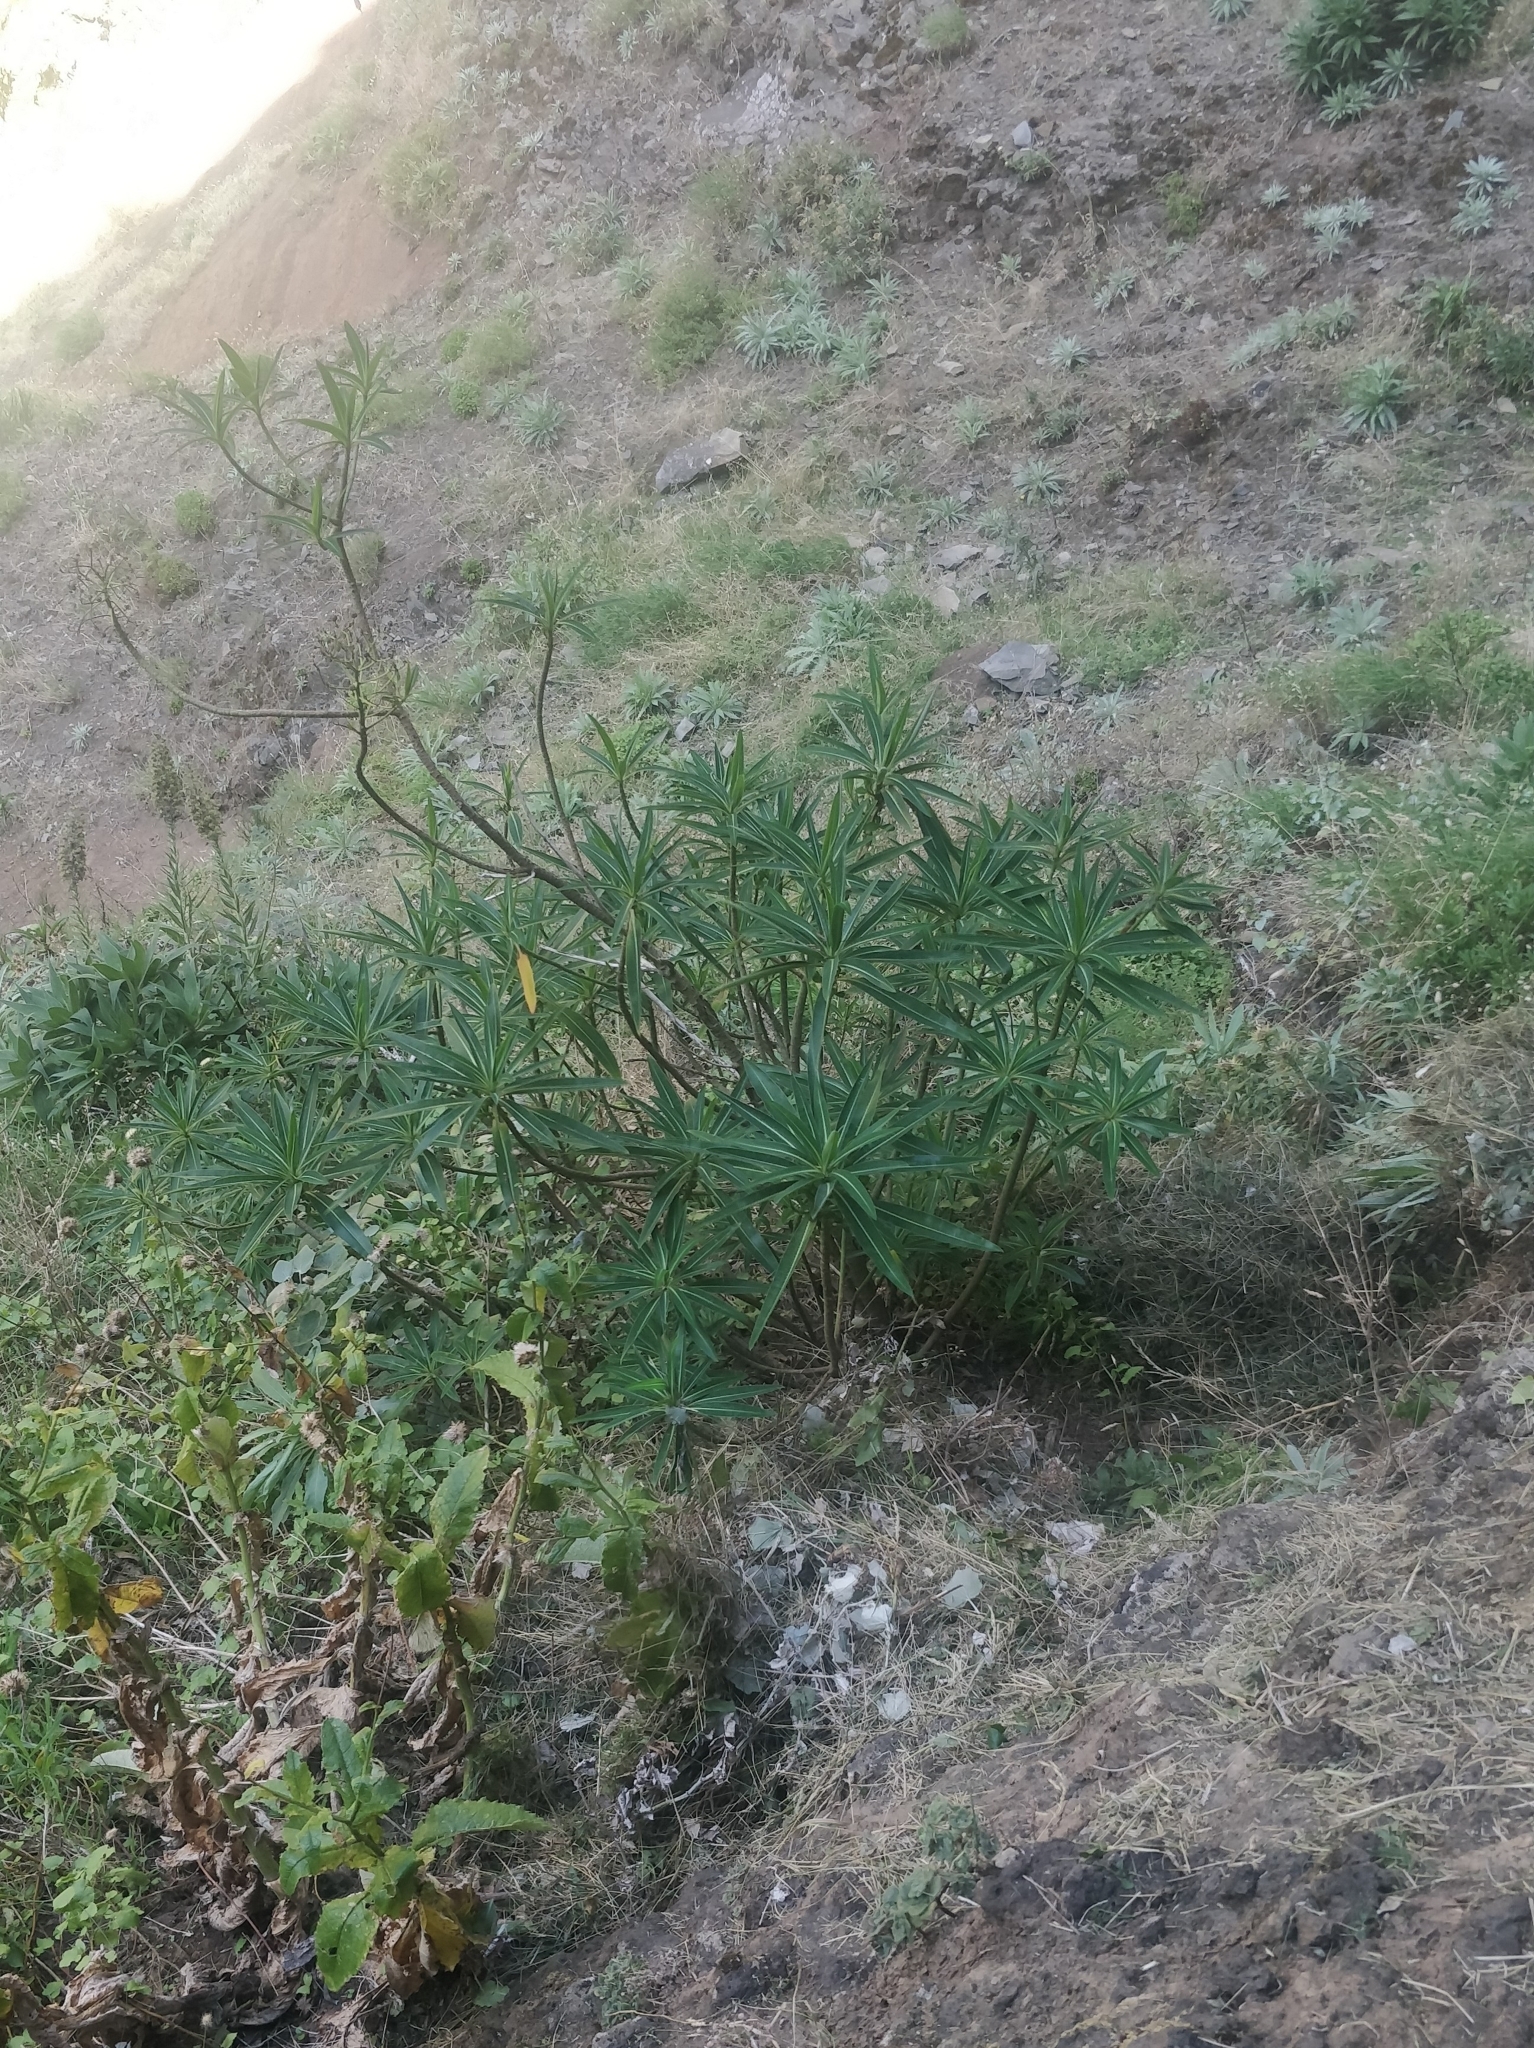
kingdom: Plantae
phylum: Tracheophyta
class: Magnoliopsida
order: Malpighiales
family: Euphorbiaceae
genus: Euphorbia
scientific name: Euphorbia mellifera
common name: Canary spurge
